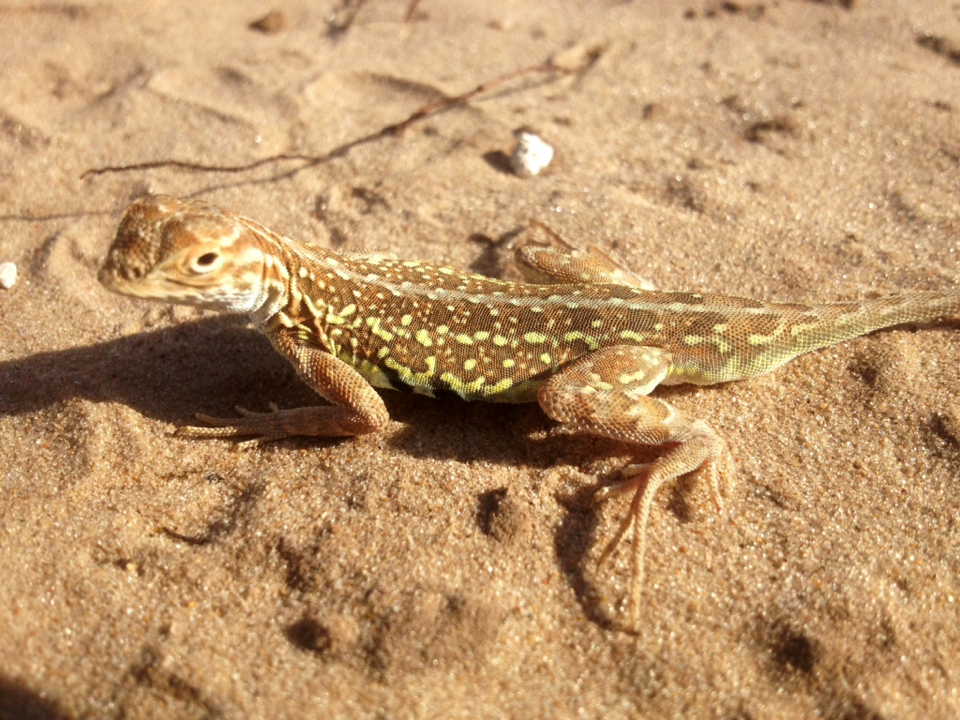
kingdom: Animalia
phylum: Chordata
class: Squamata
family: Phrynosomatidae
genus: Holbrookia
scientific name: Holbrookia maculata
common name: Lesser earless lizard
